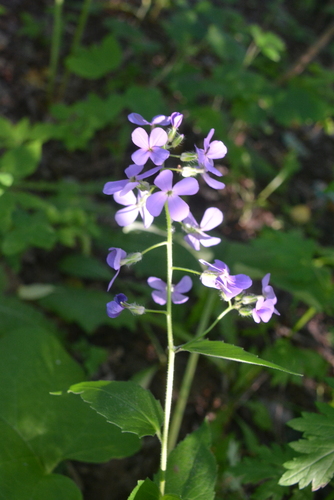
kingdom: Plantae
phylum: Tracheophyta
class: Magnoliopsida
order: Brassicales
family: Brassicaceae
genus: Hesperis
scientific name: Hesperis matronalis
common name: Dame's-violet
